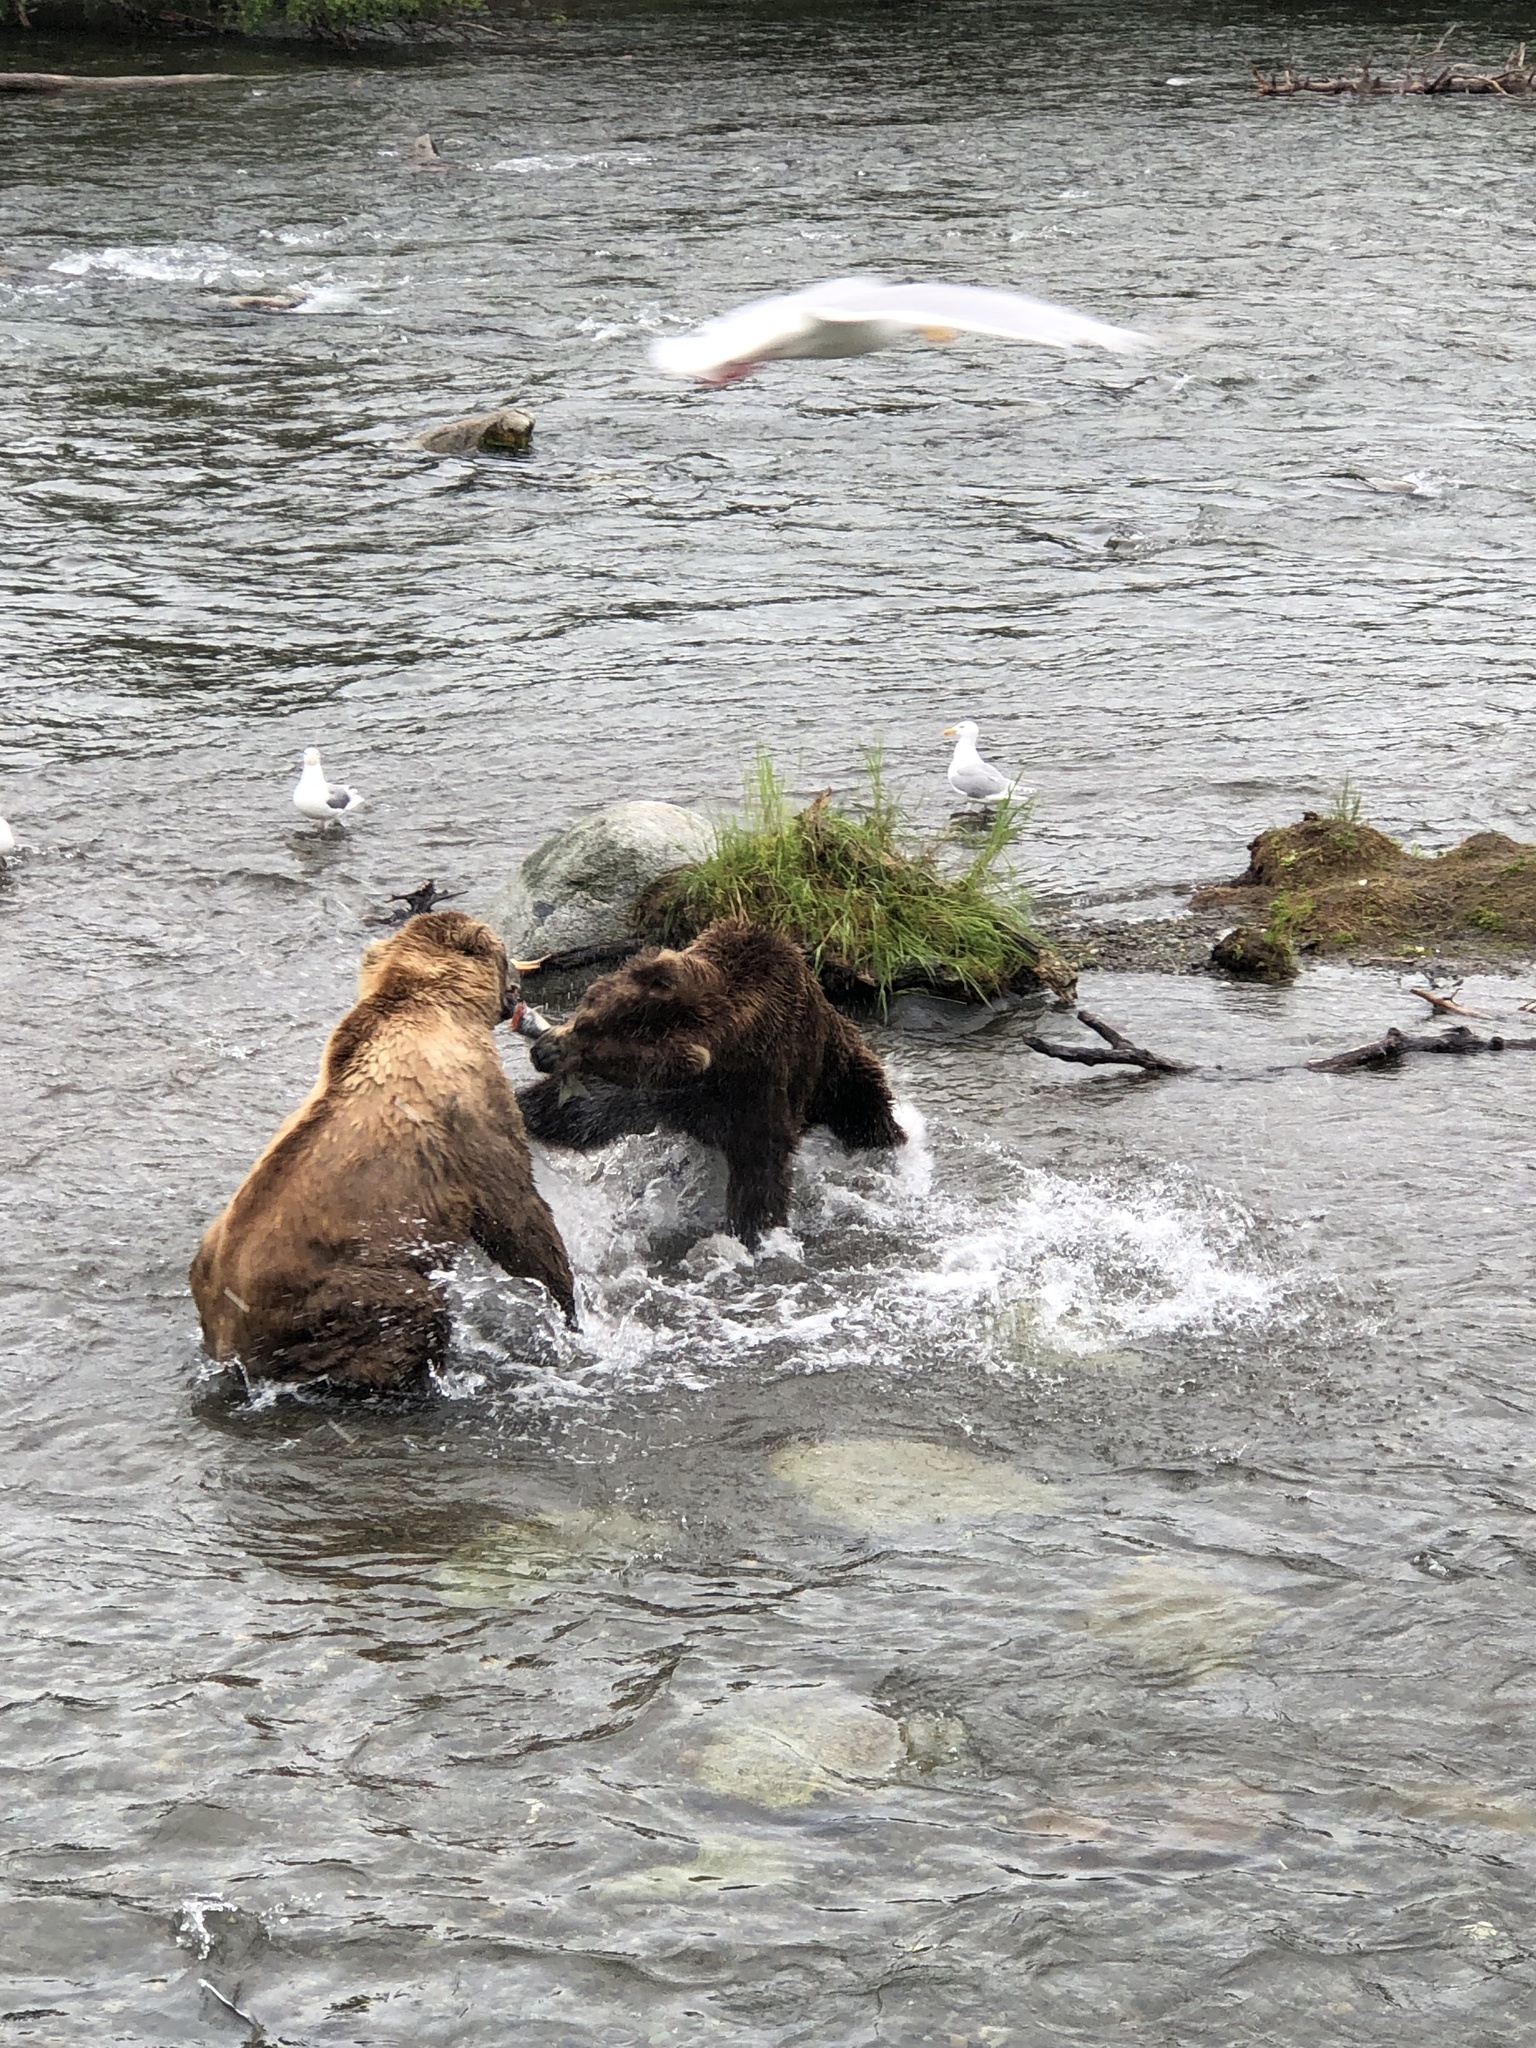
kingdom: Animalia
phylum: Chordata
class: Mammalia
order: Carnivora
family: Ursidae
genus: Ursus
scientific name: Ursus arctos
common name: Brown bear
